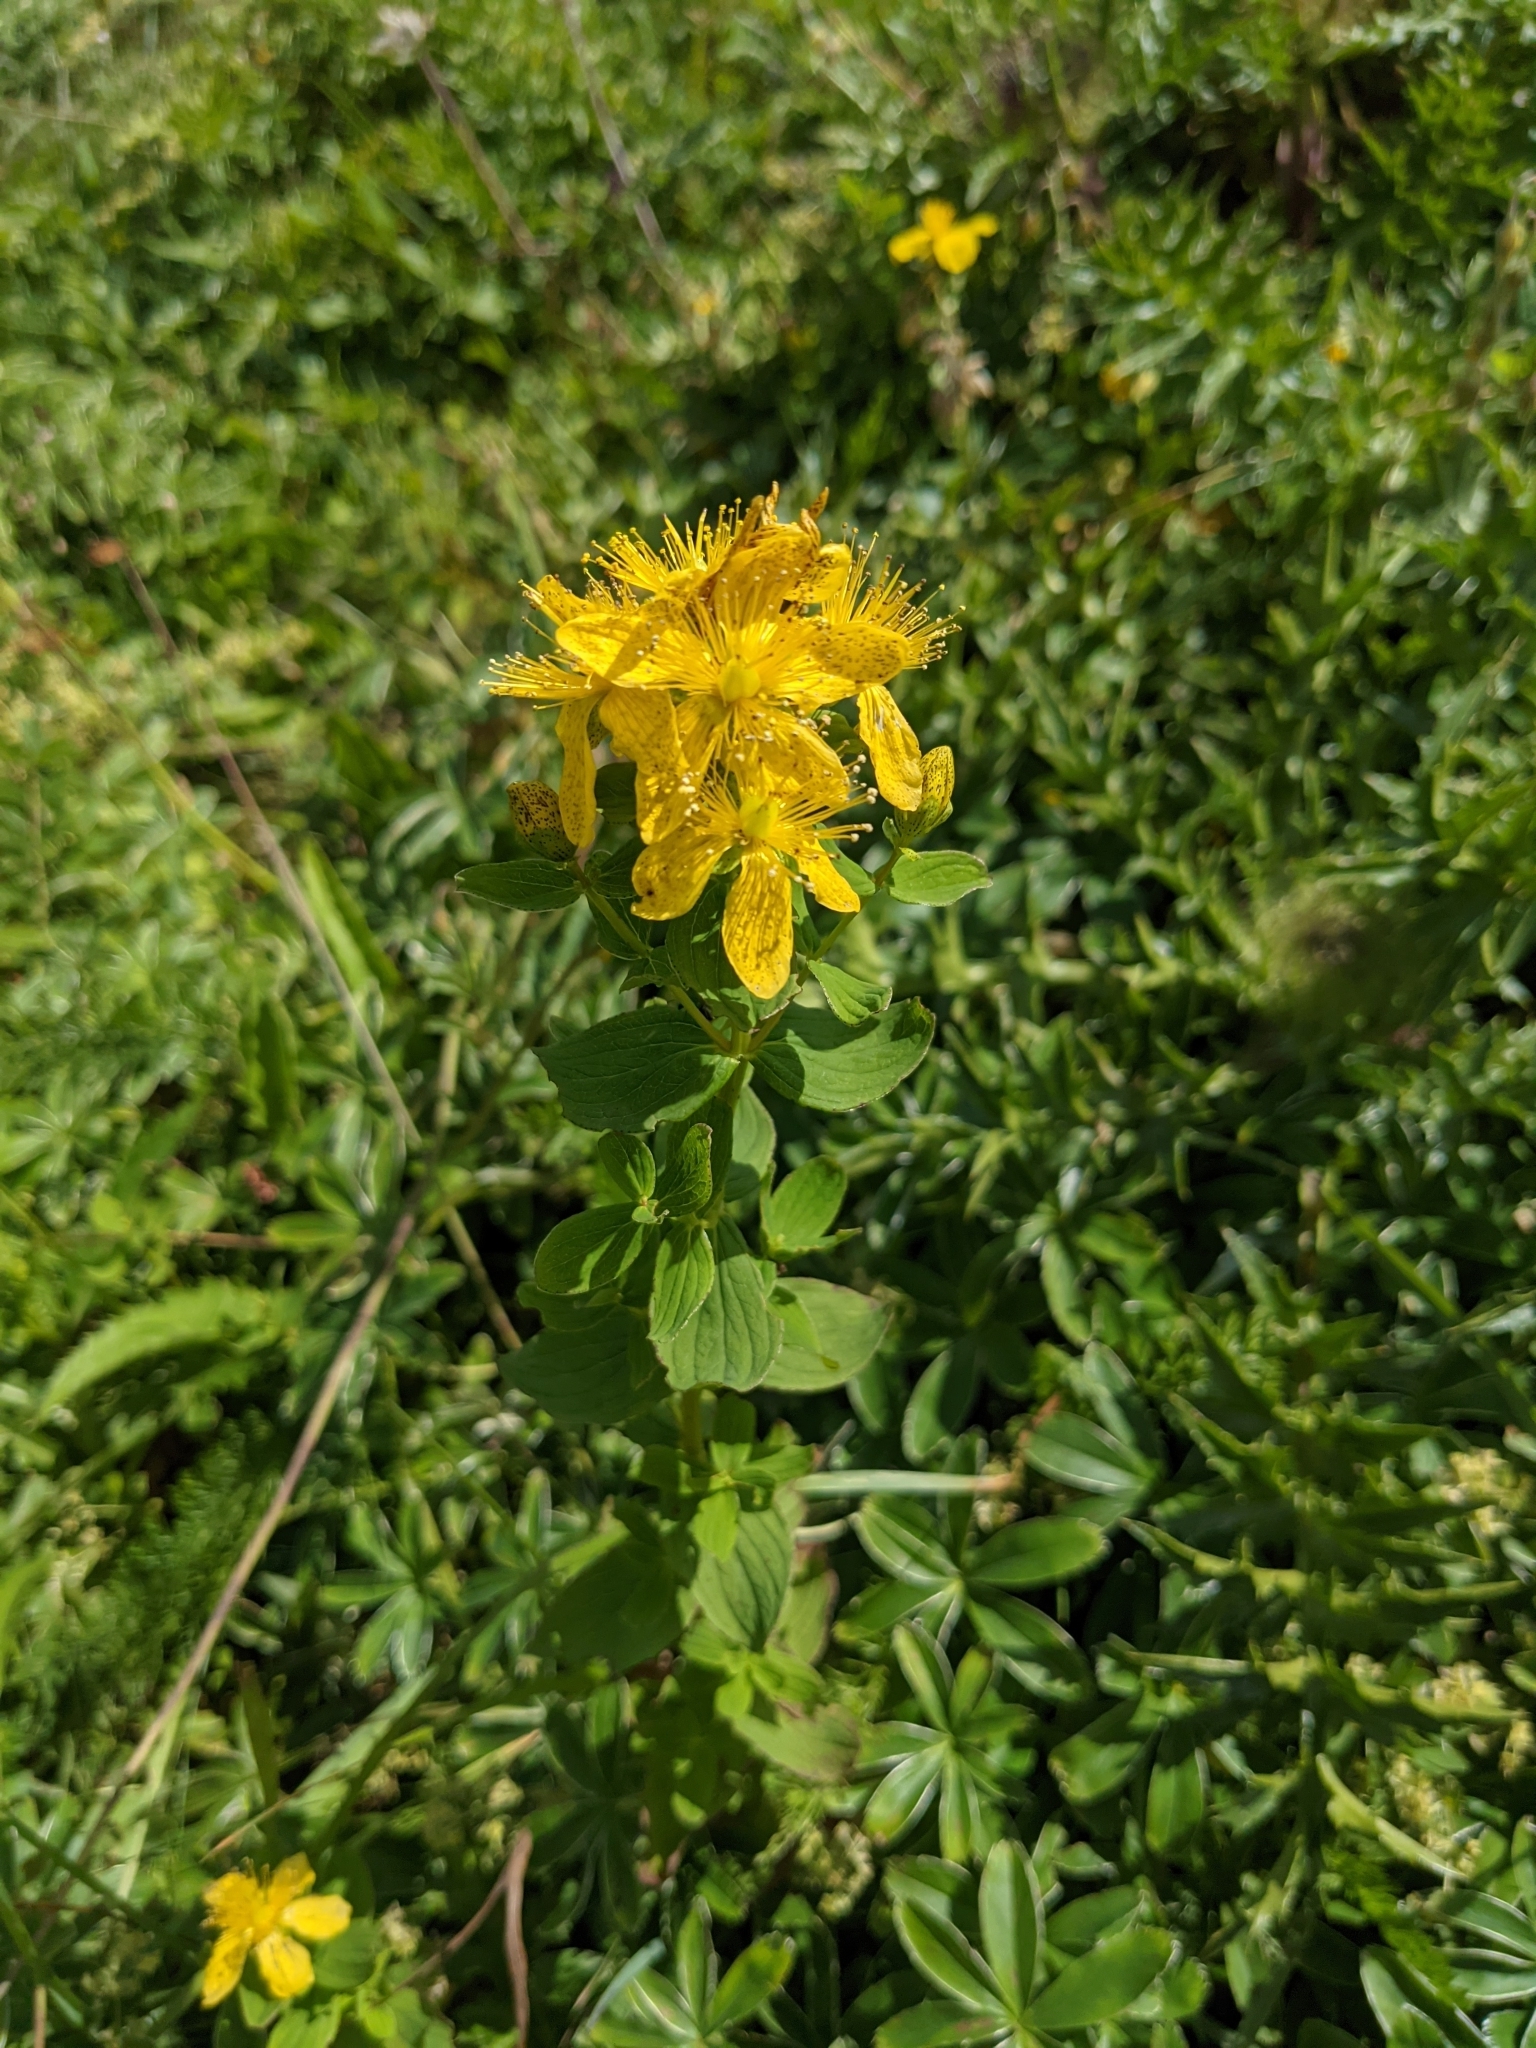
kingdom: Plantae
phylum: Tracheophyta
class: Magnoliopsida
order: Malpighiales
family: Hypericaceae
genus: Hypericum
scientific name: Hypericum maculatum
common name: Imperforate st. john's-wort
